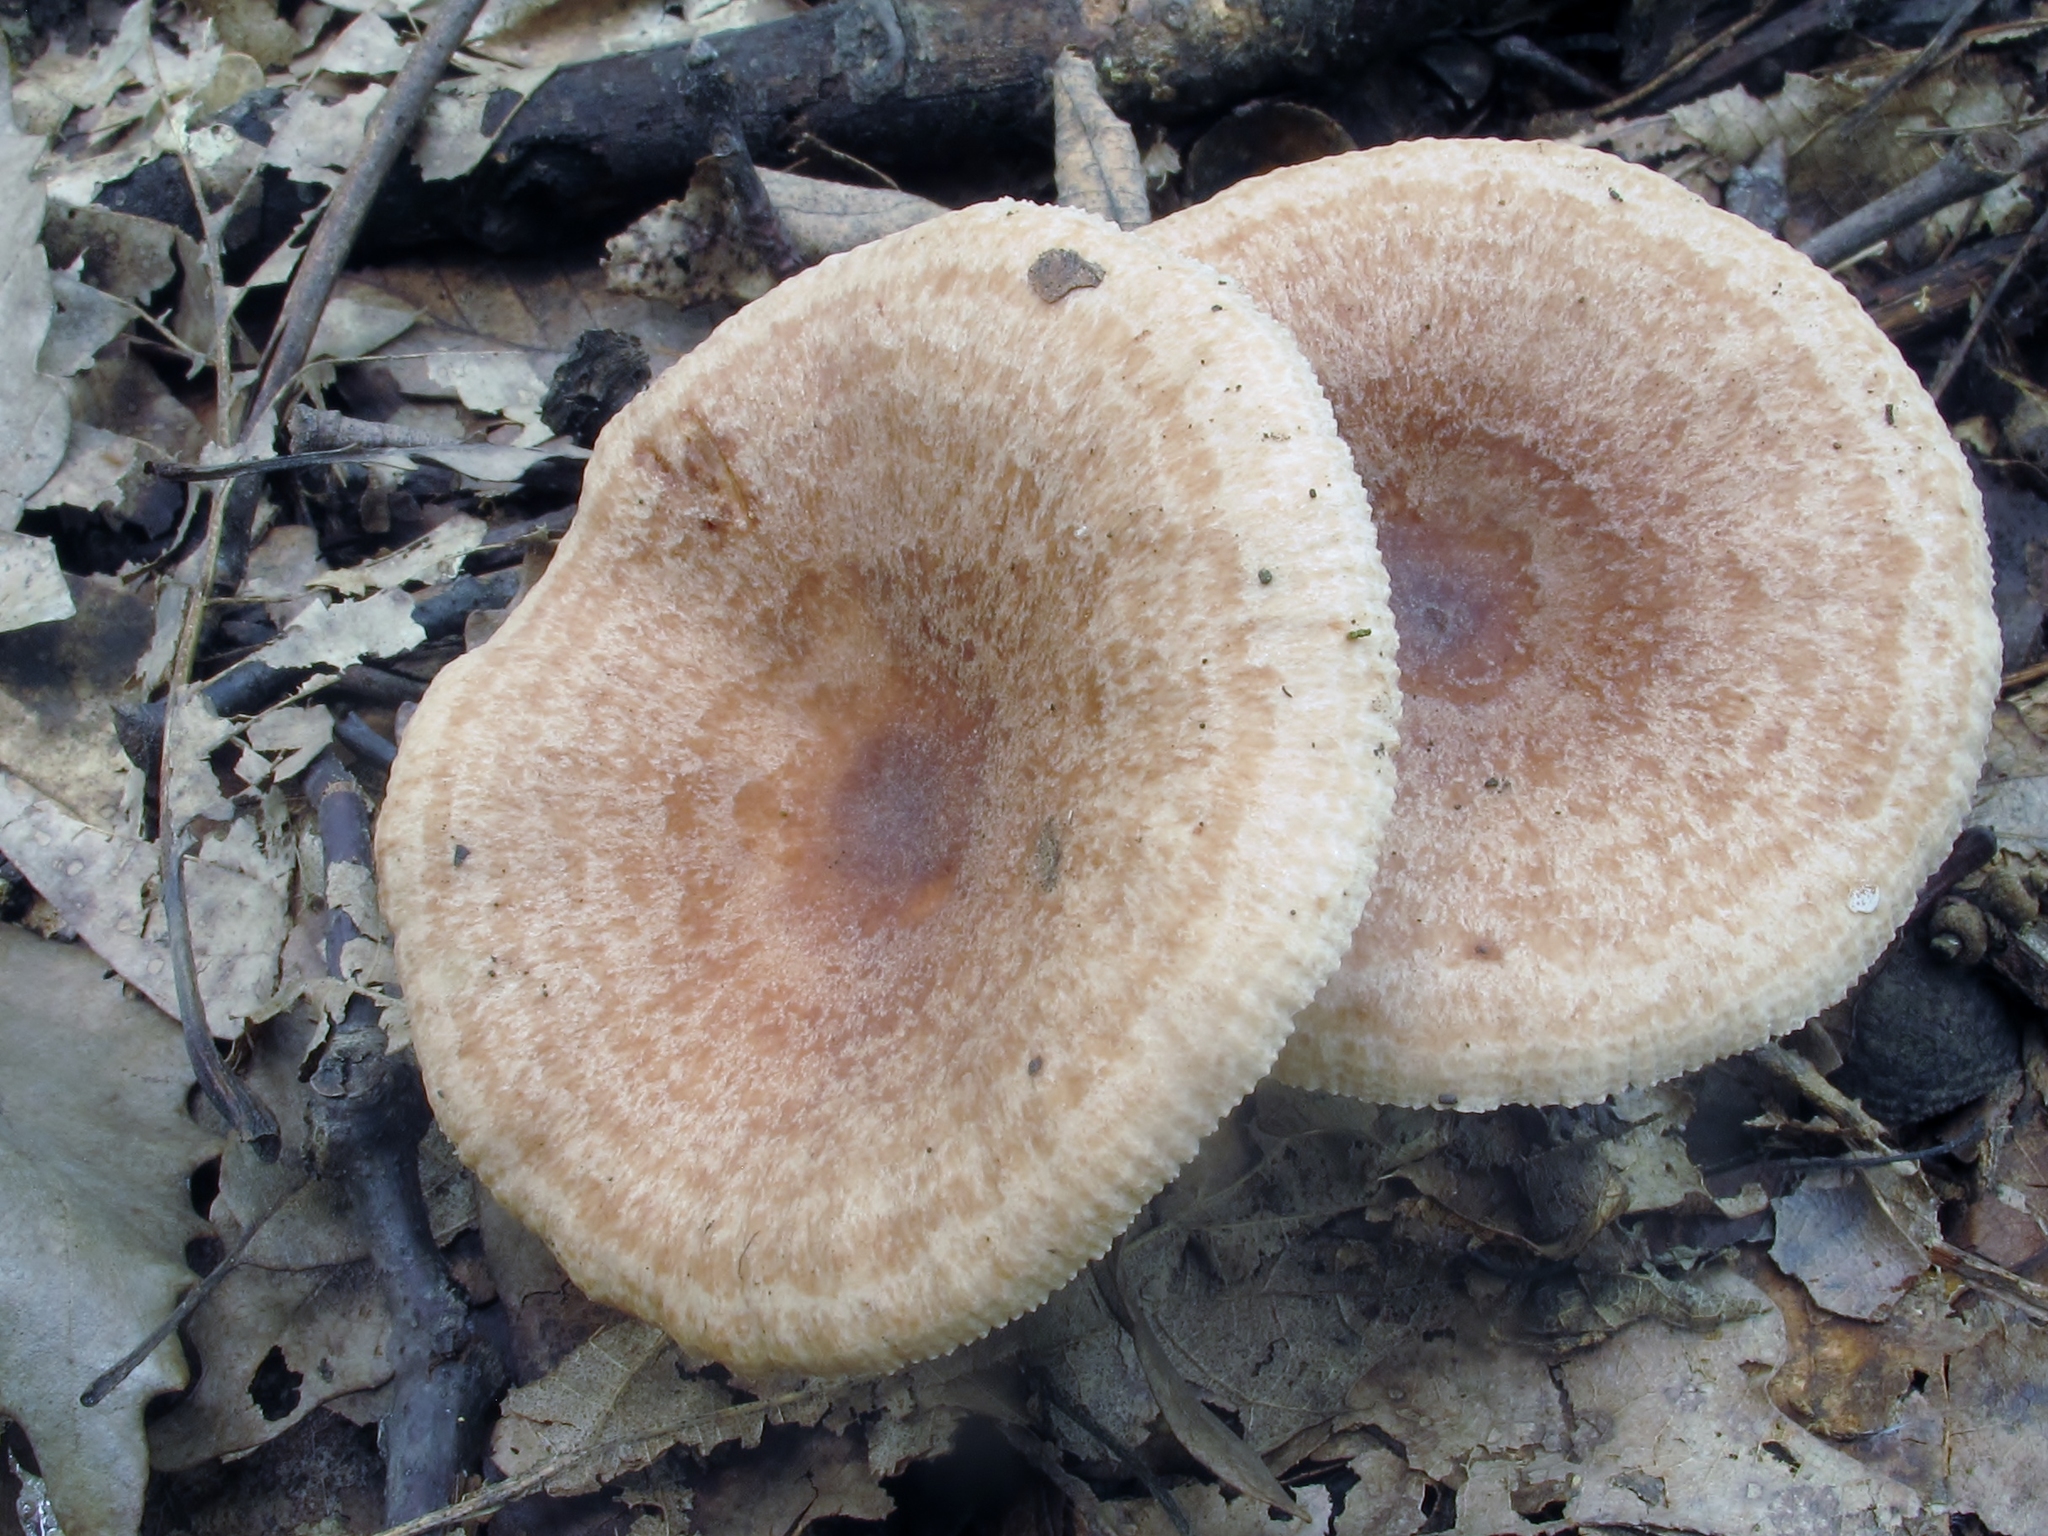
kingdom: Fungi
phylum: Basidiomycota
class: Agaricomycetes
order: Russulales
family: Russulaceae
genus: Lactarius
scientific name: Lactarius quietus
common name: Oak milk-cap
